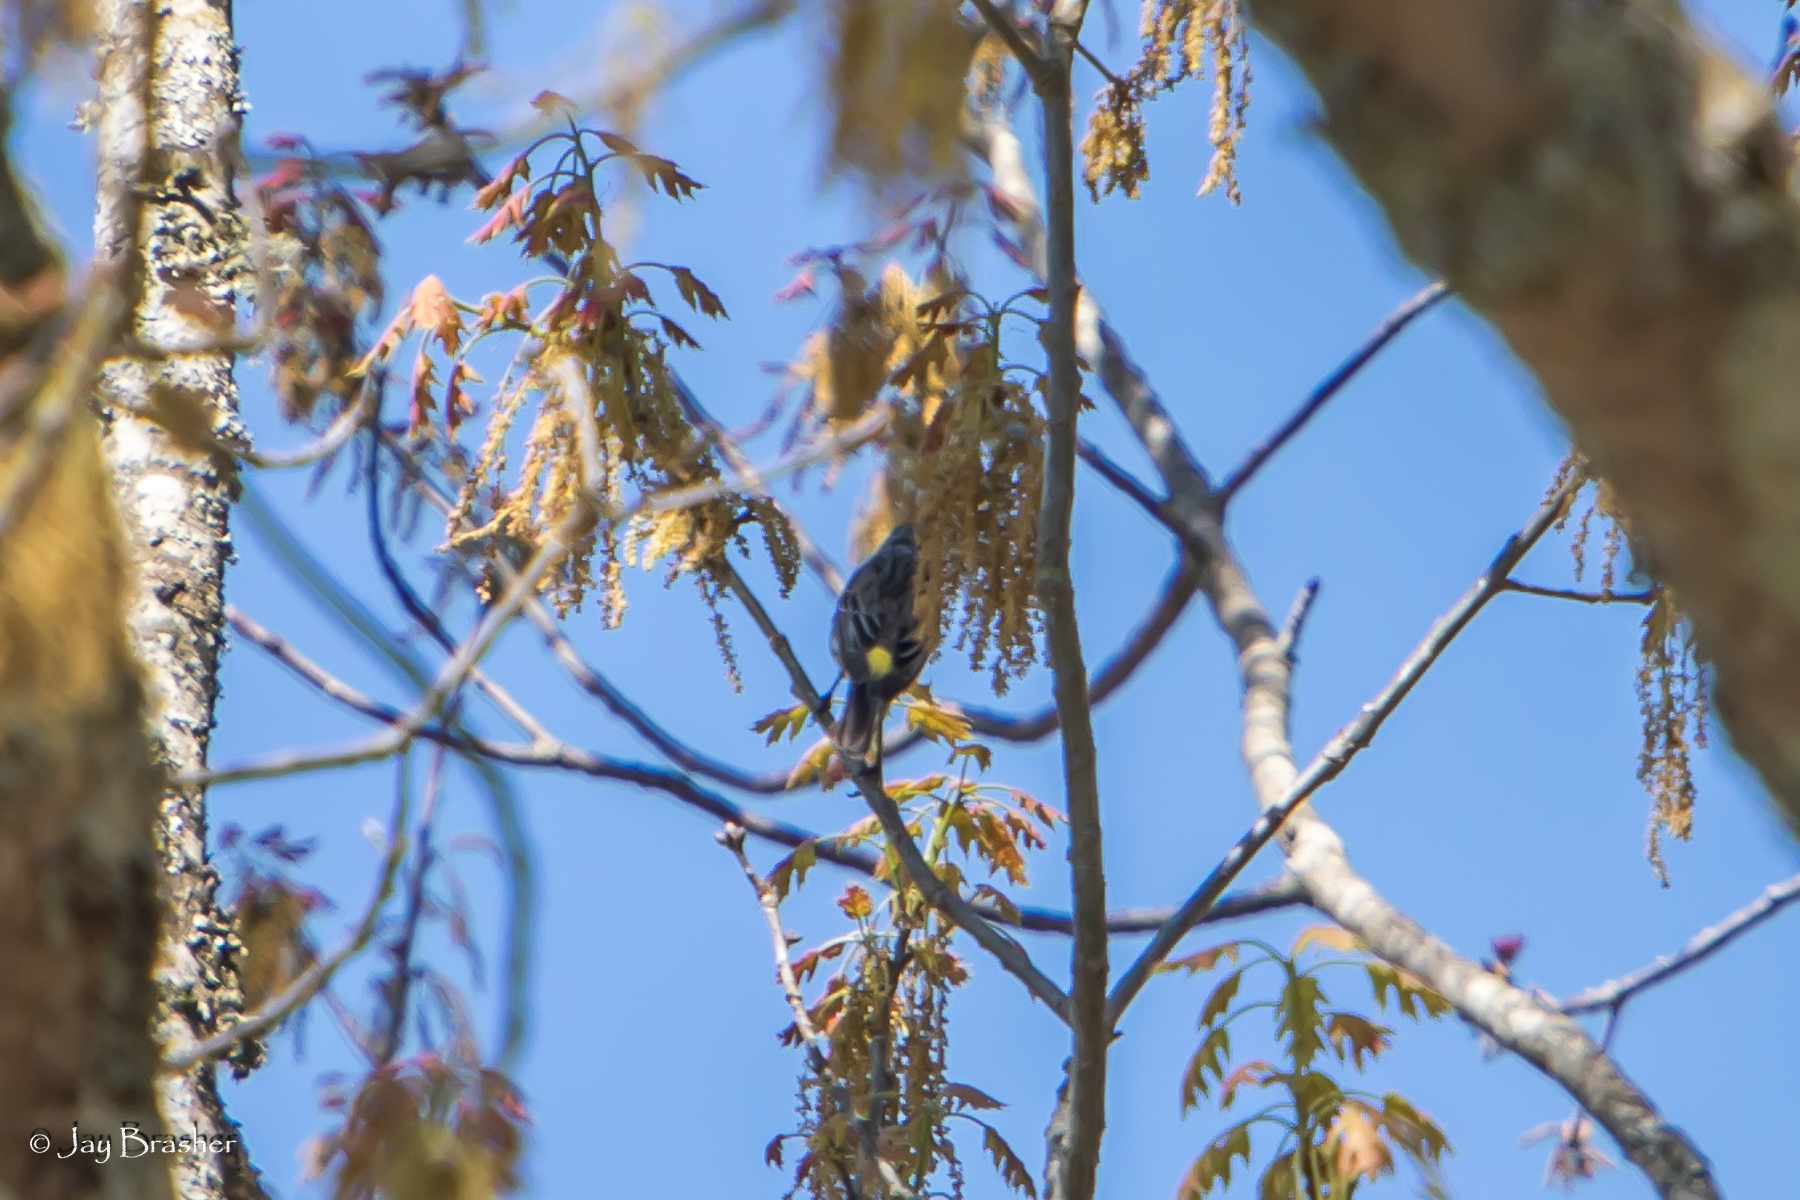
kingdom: Animalia
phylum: Chordata
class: Aves
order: Passeriformes
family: Parulidae
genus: Setophaga
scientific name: Setophaga coronata
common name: Myrtle warbler
